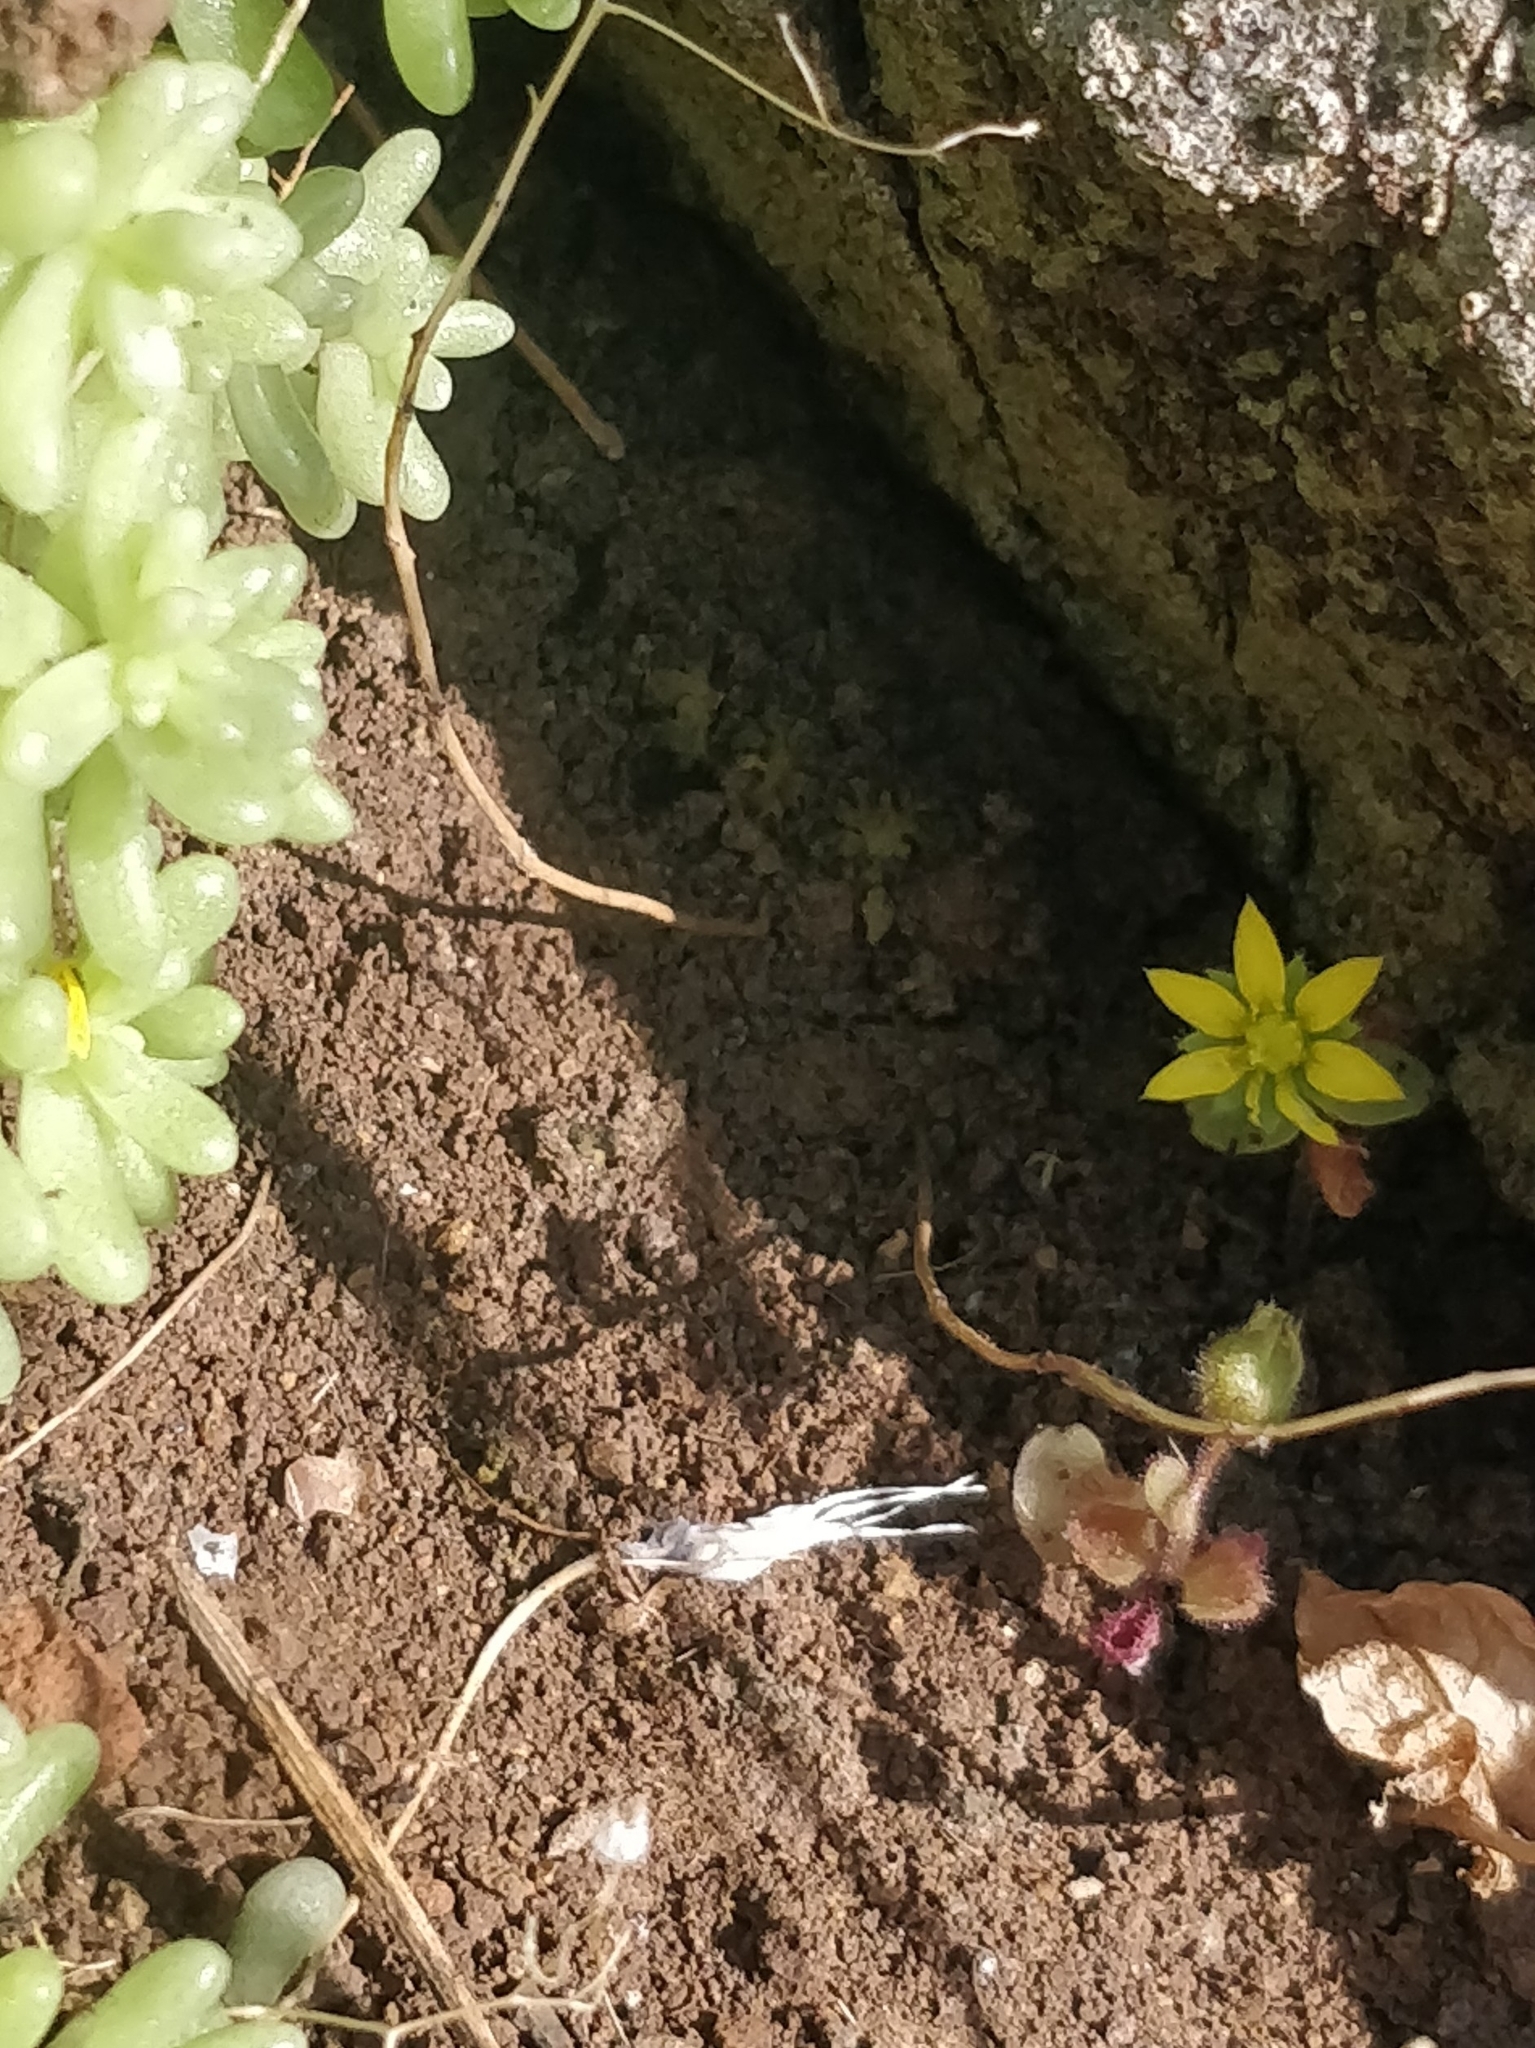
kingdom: Plantae
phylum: Tracheophyta
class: Magnoliopsida
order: Saxifragales
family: Crassulaceae
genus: Aichryson
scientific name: Aichryson villosum
